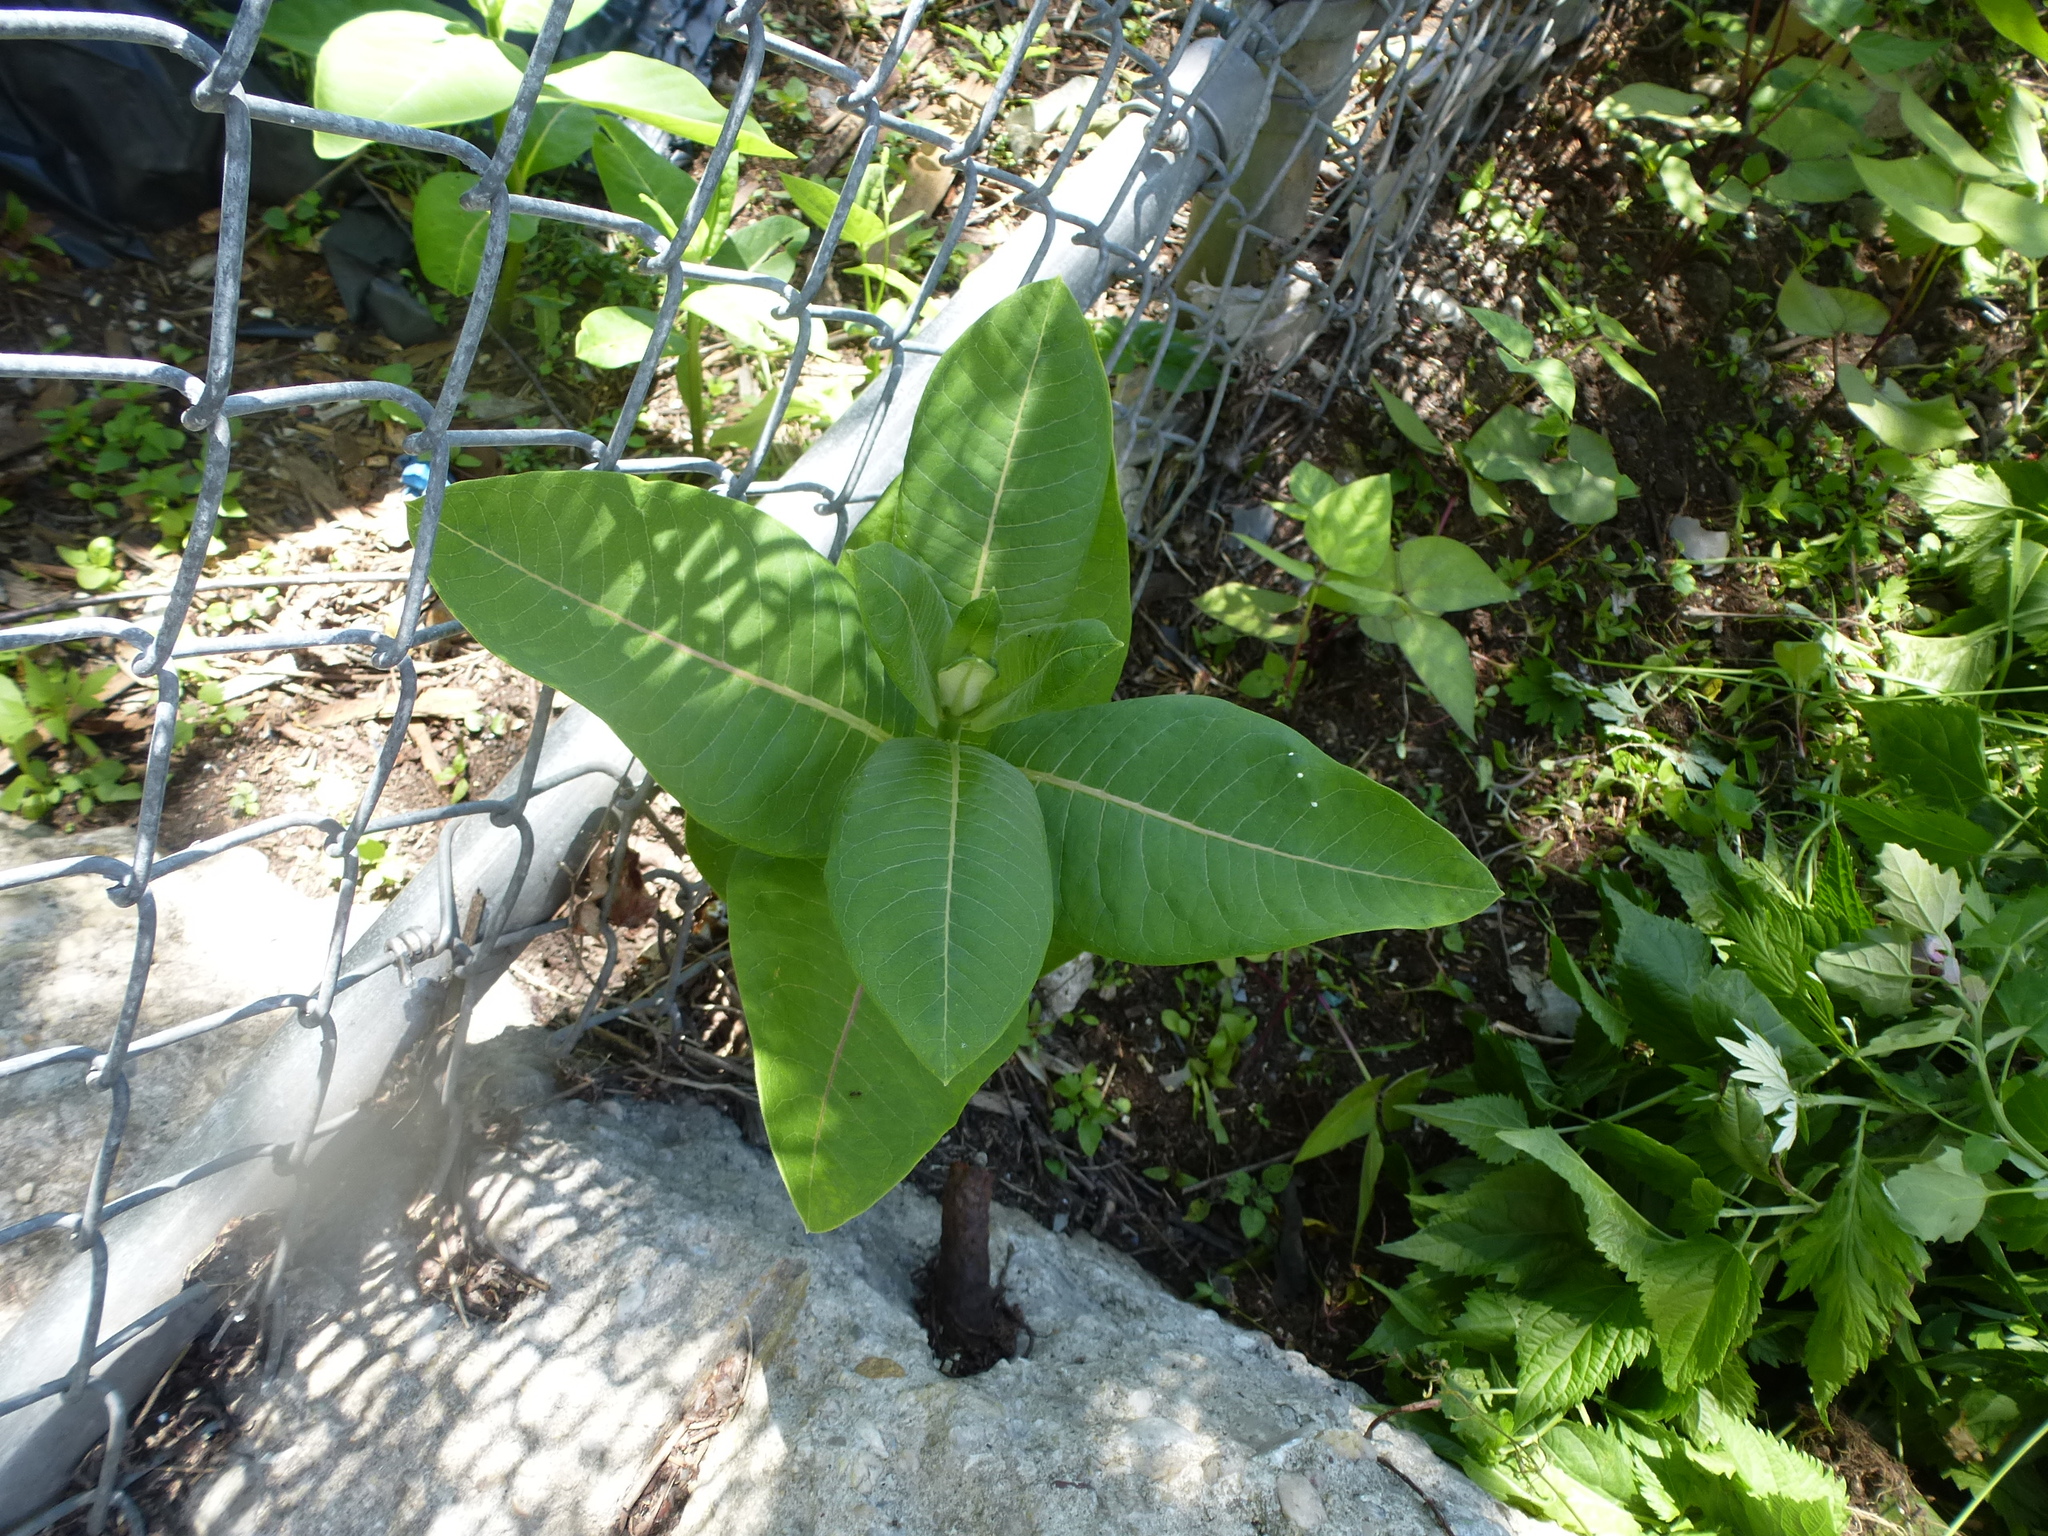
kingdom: Plantae
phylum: Tracheophyta
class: Magnoliopsida
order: Gentianales
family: Apocynaceae
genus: Asclepias
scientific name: Asclepias syriaca
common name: Common milkweed
